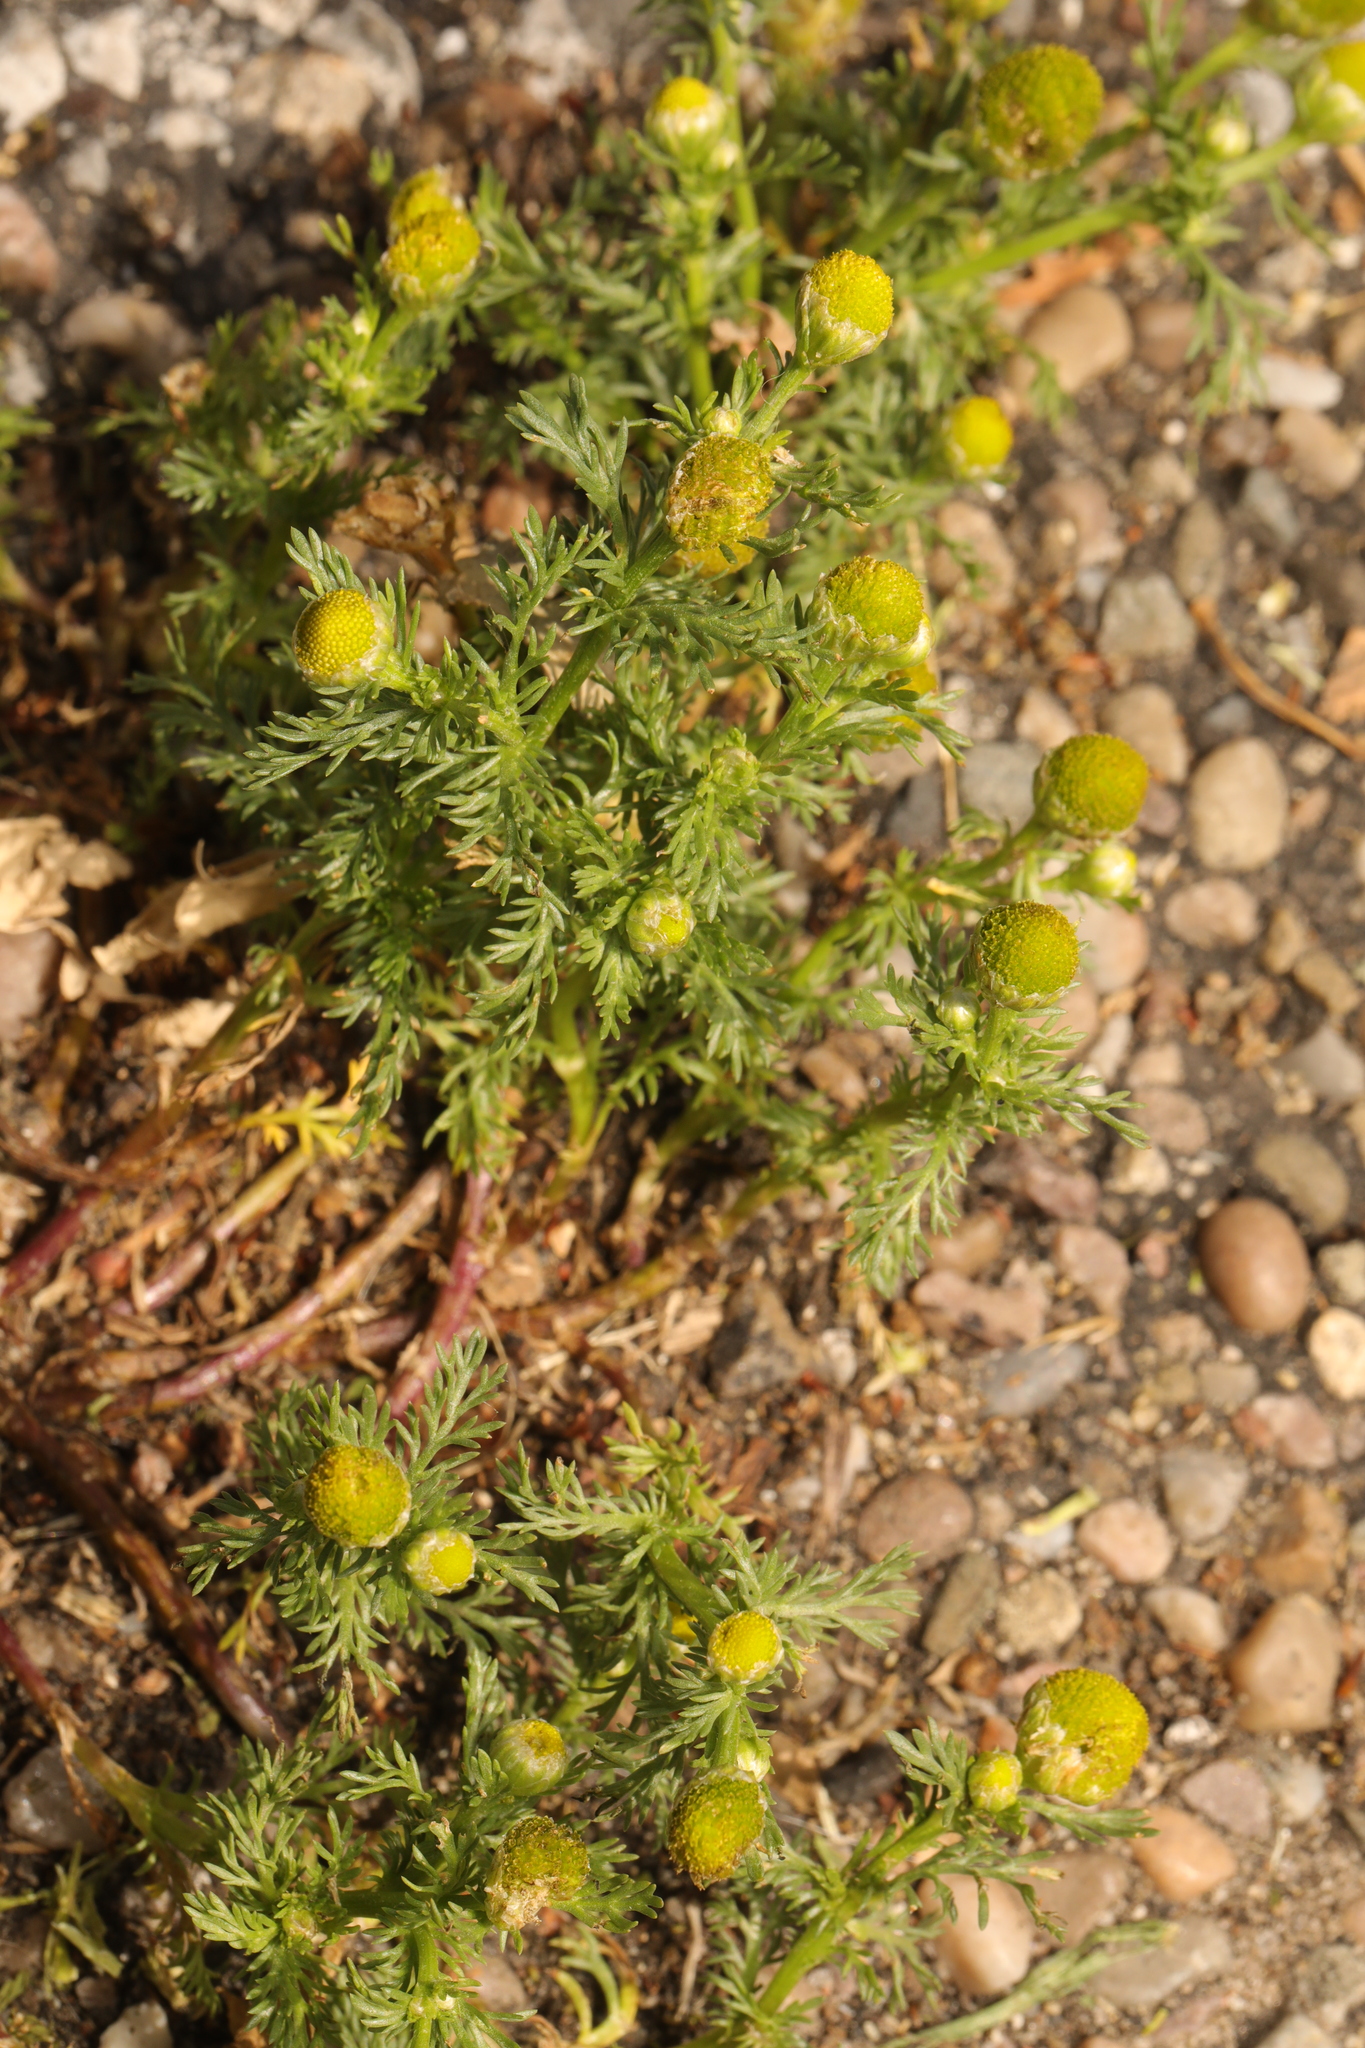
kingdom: Plantae
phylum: Tracheophyta
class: Magnoliopsida
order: Asterales
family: Asteraceae
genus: Matricaria
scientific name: Matricaria discoidea
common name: Disc mayweed
